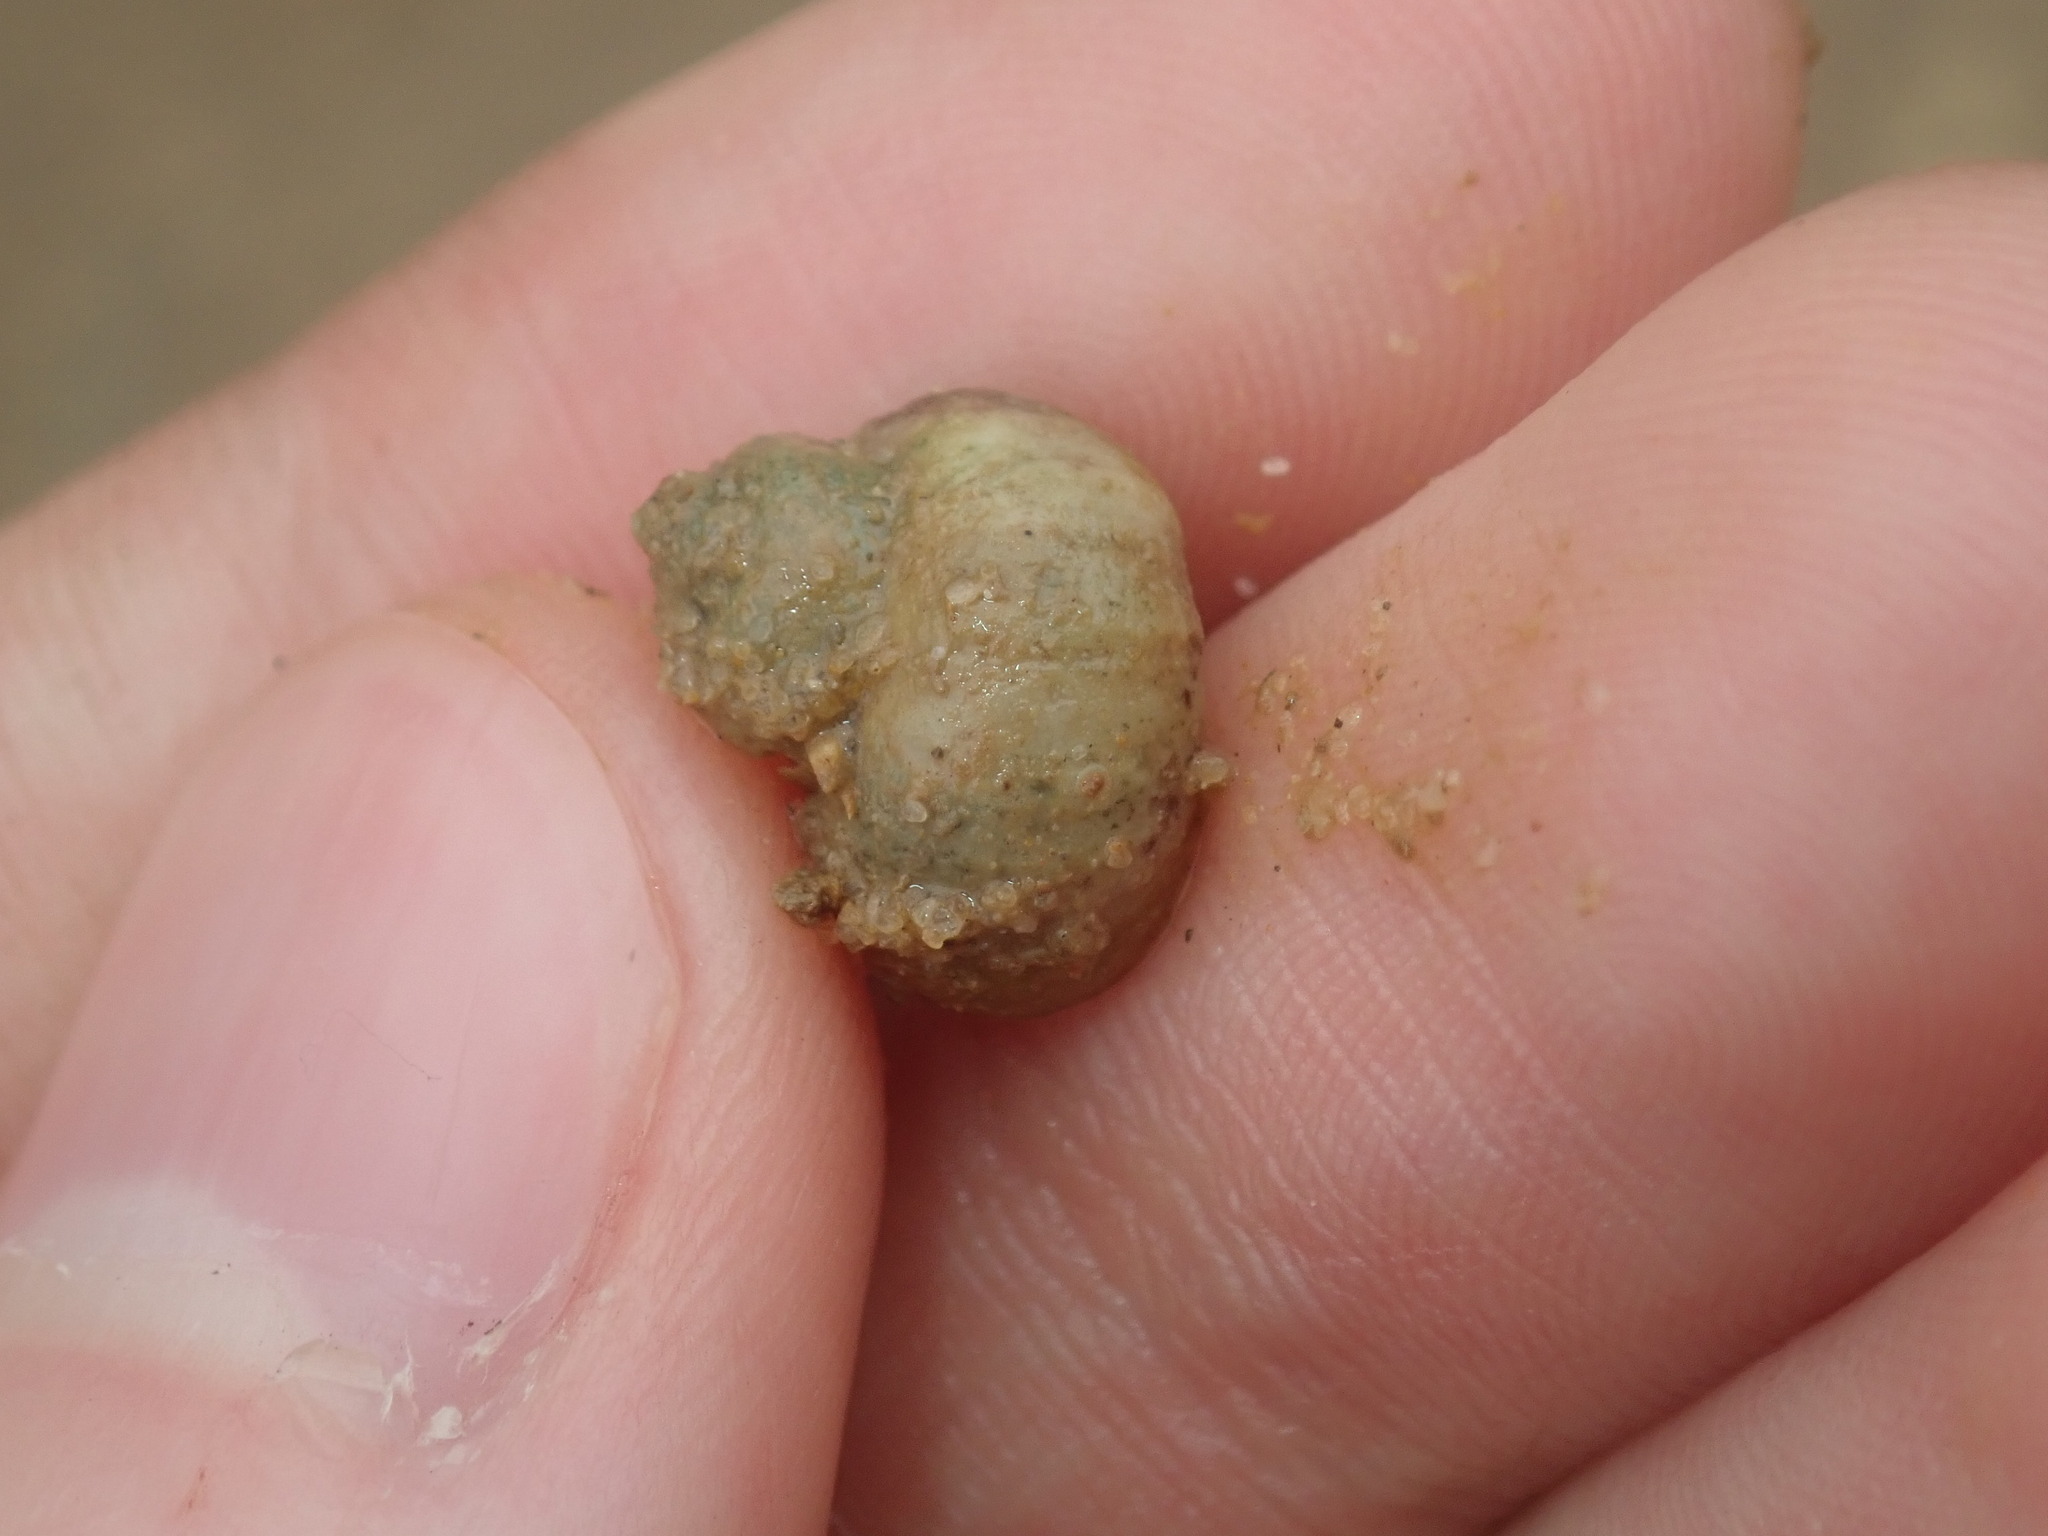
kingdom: Animalia
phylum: Mollusca
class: Gastropoda
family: Amphibolidae
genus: Phallomedusa
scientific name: Phallomedusa solida
